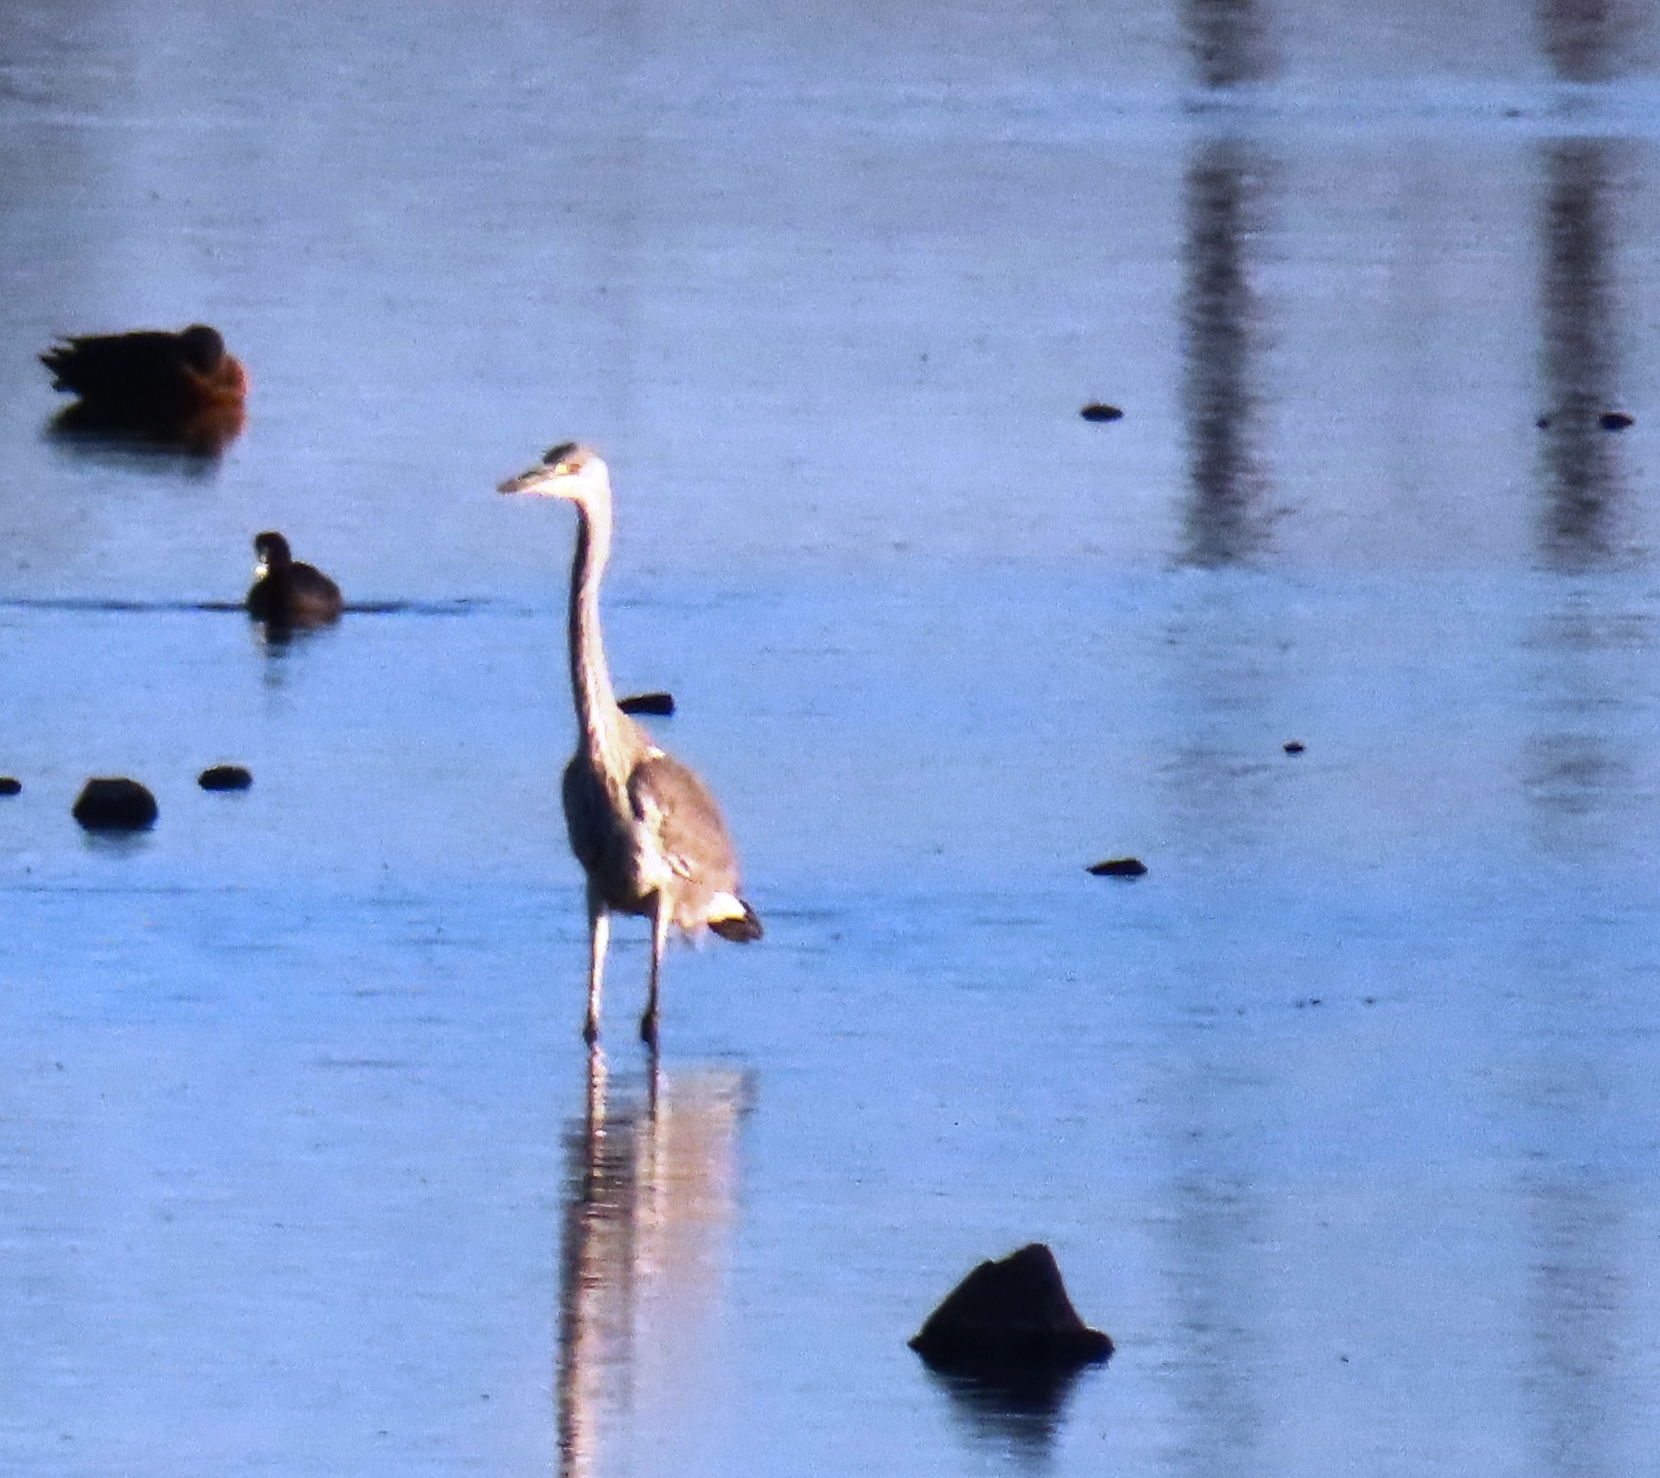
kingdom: Animalia
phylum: Chordata
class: Aves
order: Pelecaniformes
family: Ardeidae
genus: Ardea
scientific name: Ardea cinerea
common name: Grey heron
